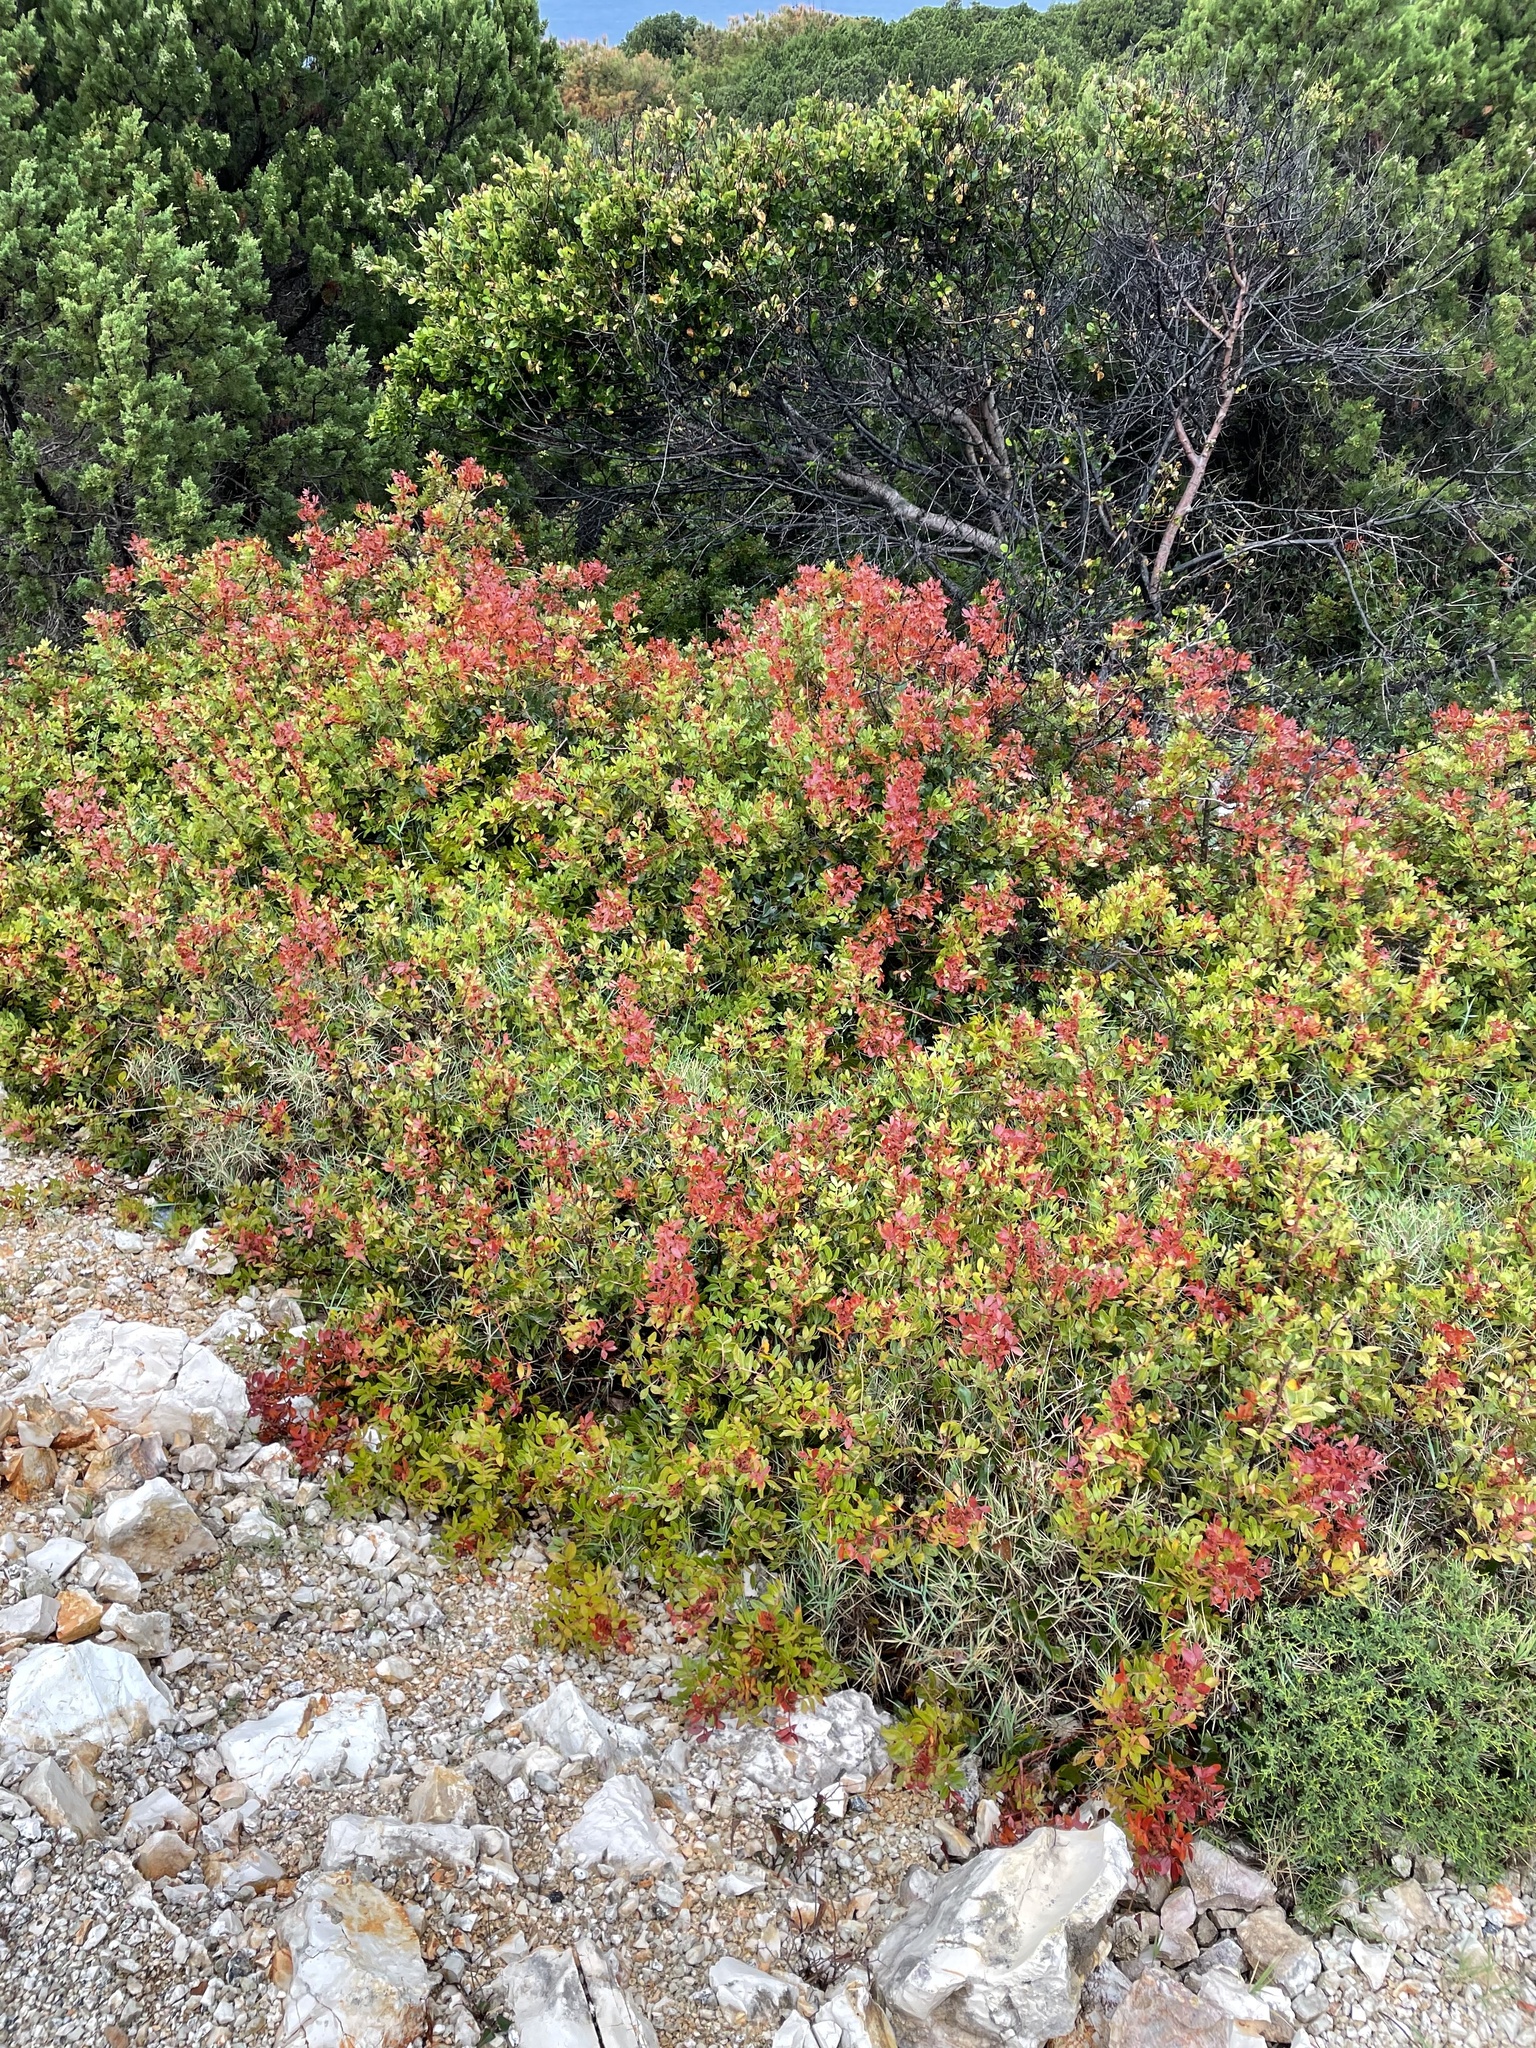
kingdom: Plantae
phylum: Tracheophyta
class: Magnoliopsida
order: Sapindales
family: Anacardiaceae
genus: Pistacia
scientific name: Pistacia lentiscus
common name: Lentisk
